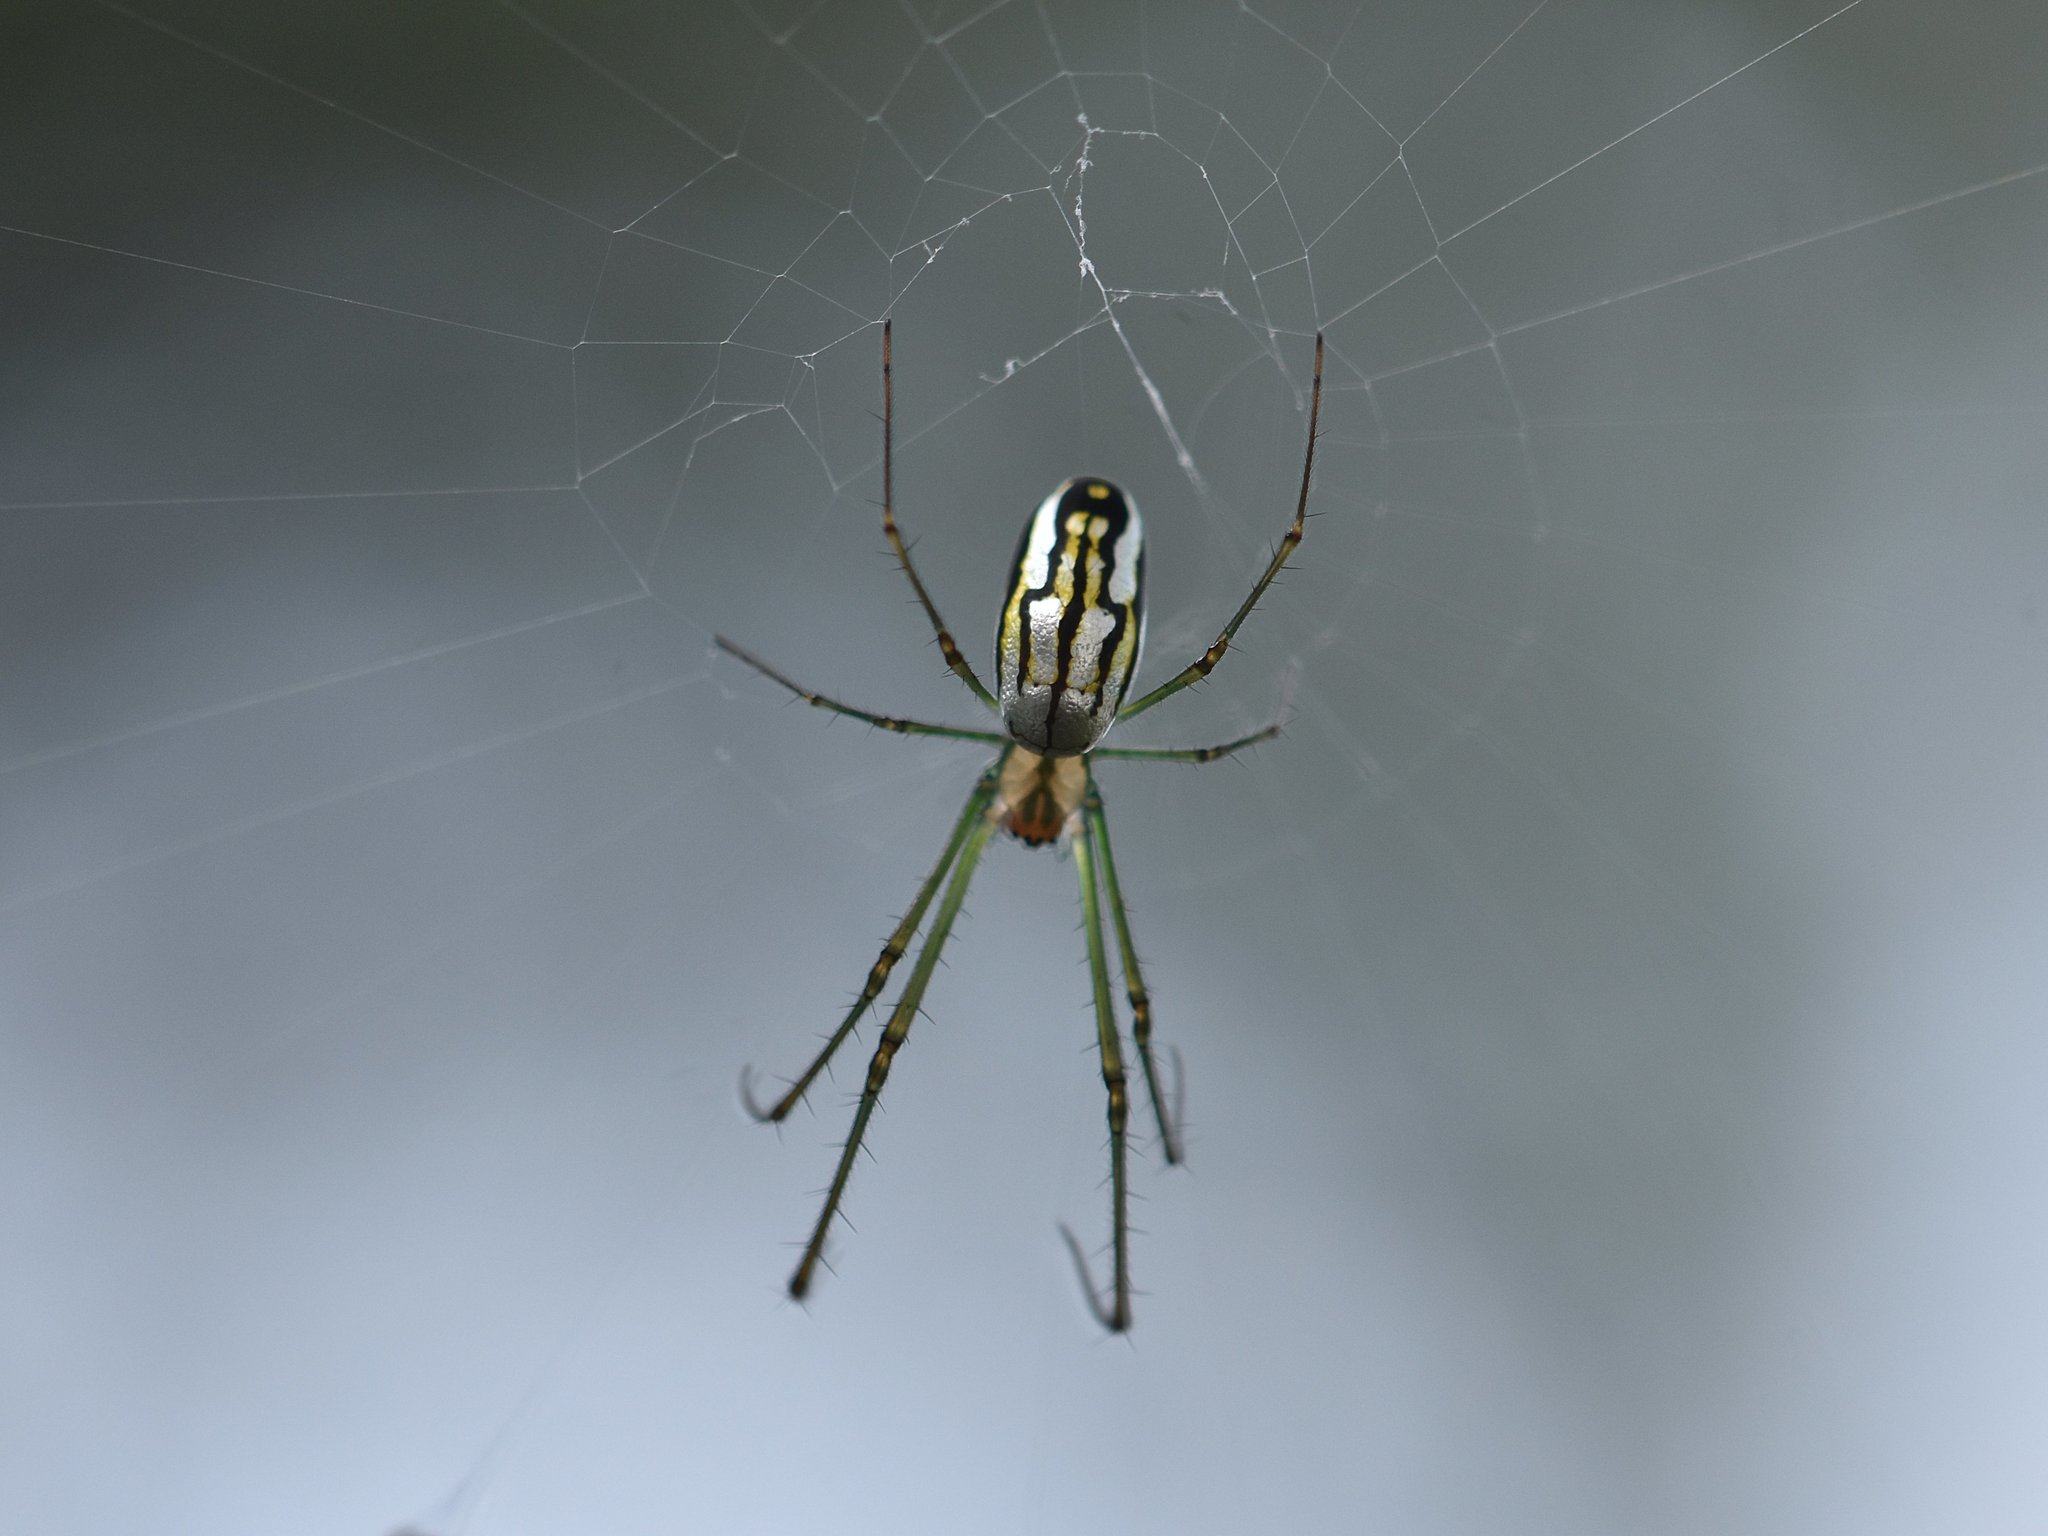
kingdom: Animalia
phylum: Arthropoda
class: Arachnida
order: Araneae
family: Tetragnathidae
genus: Leucauge
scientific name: Leucauge argyra
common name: Longjawed orb weavers
